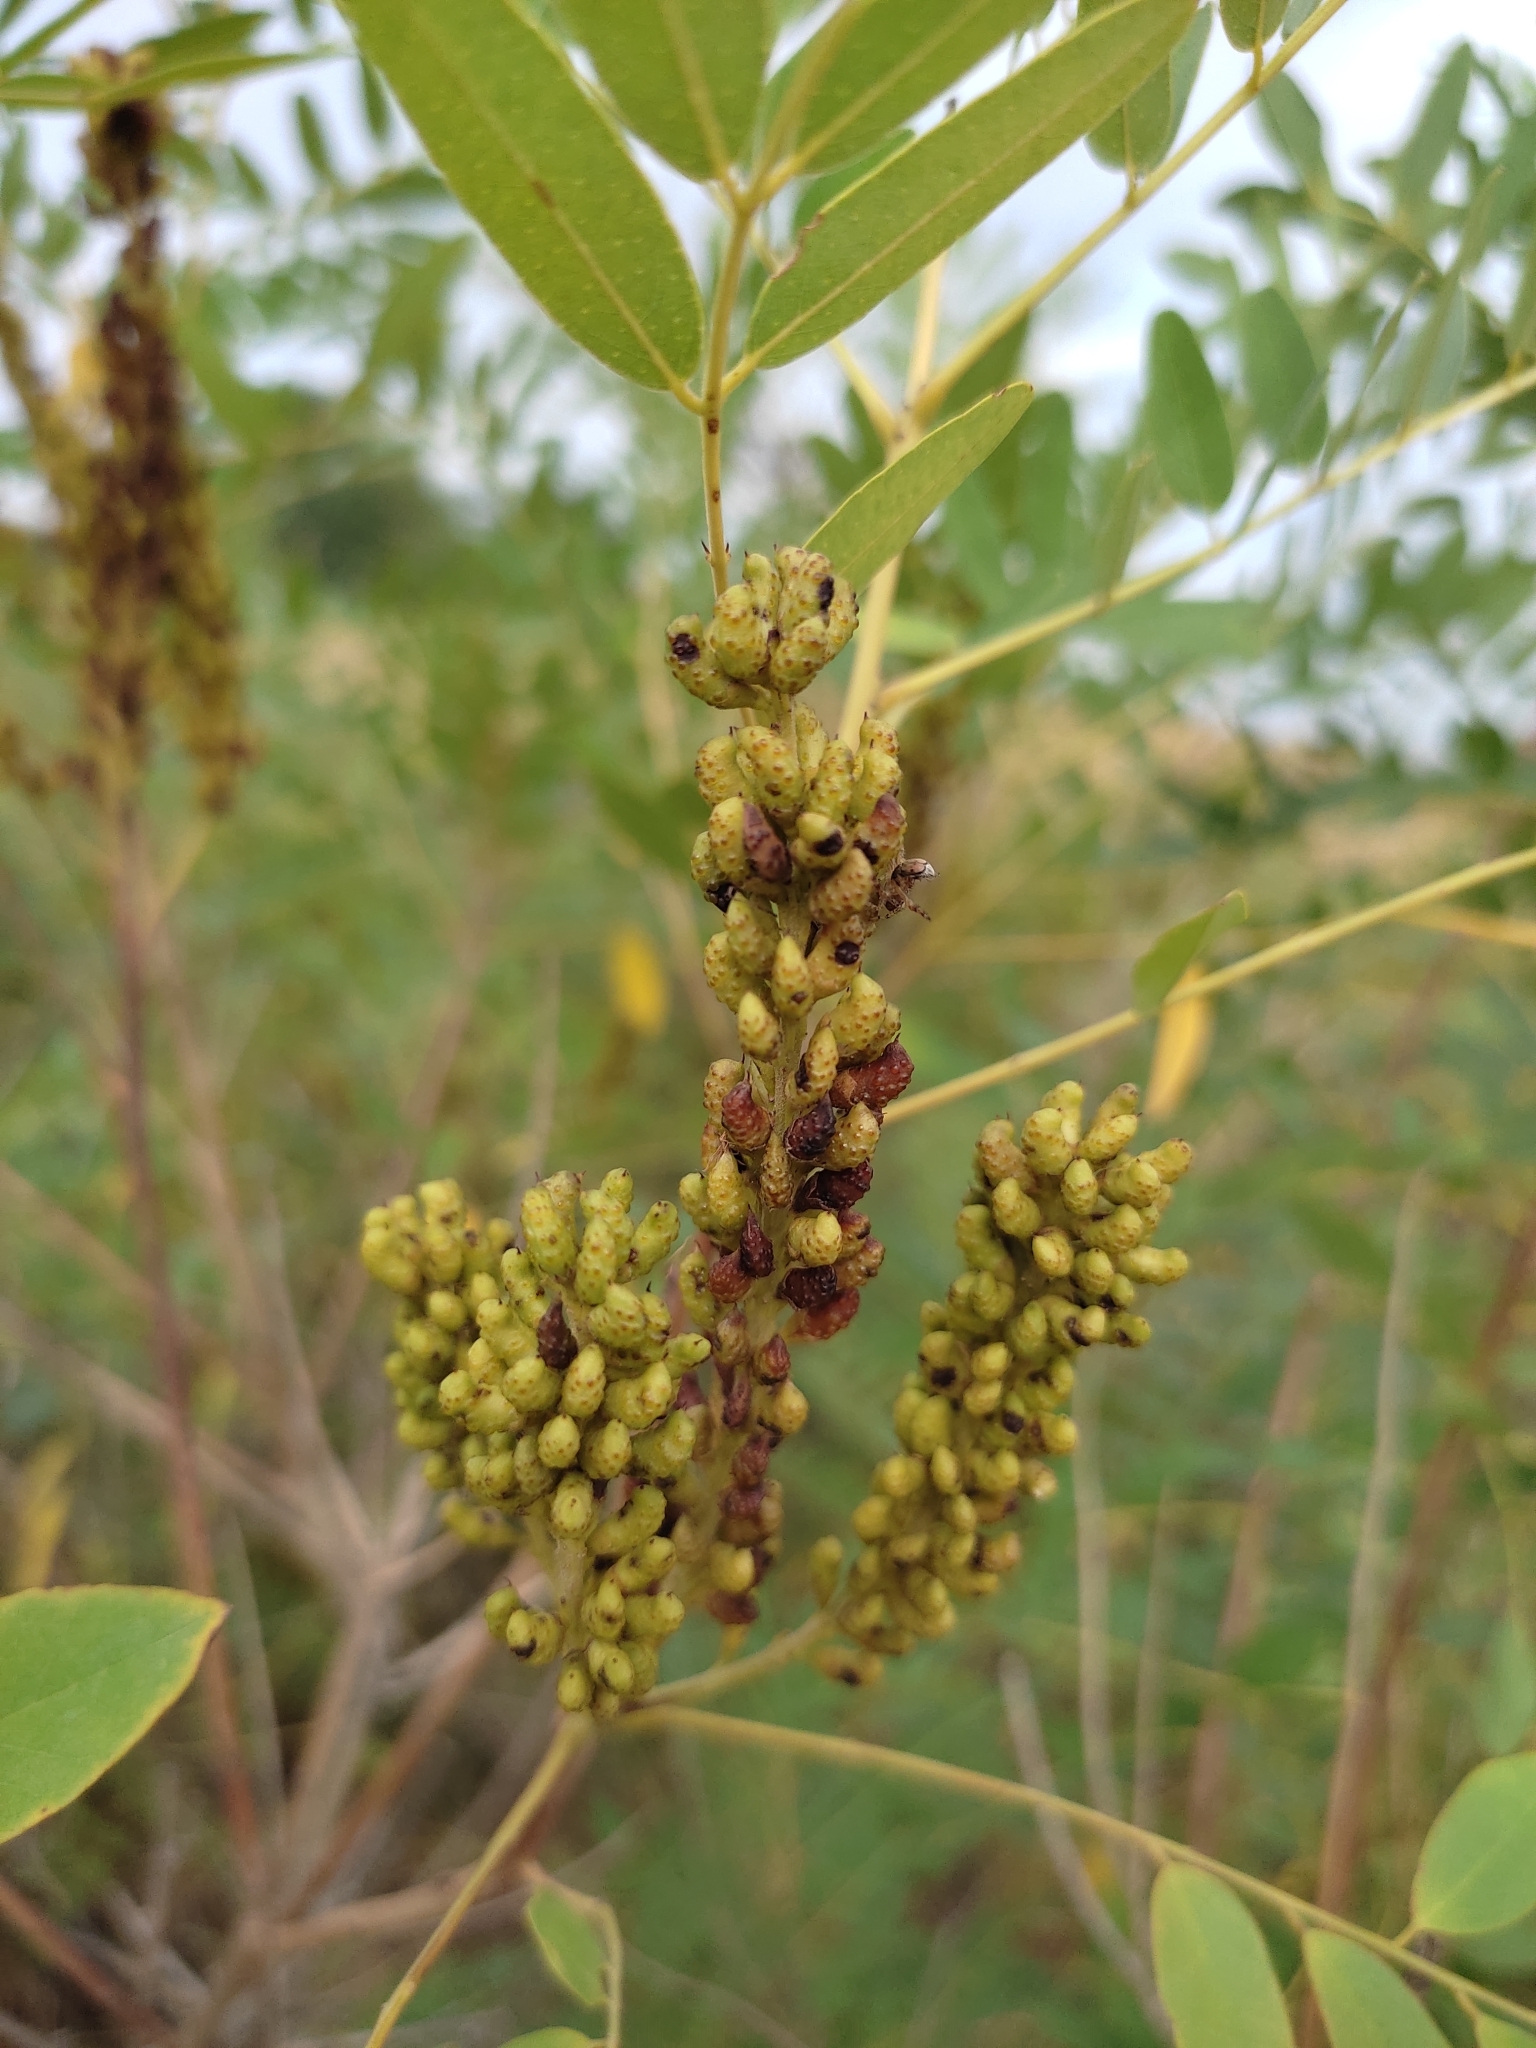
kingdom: Plantae
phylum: Tracheophyta
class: Magnoliopsida
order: Fabales
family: Fabaceae
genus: Amorpha
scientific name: Amorpha fruticosa
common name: False indigo
